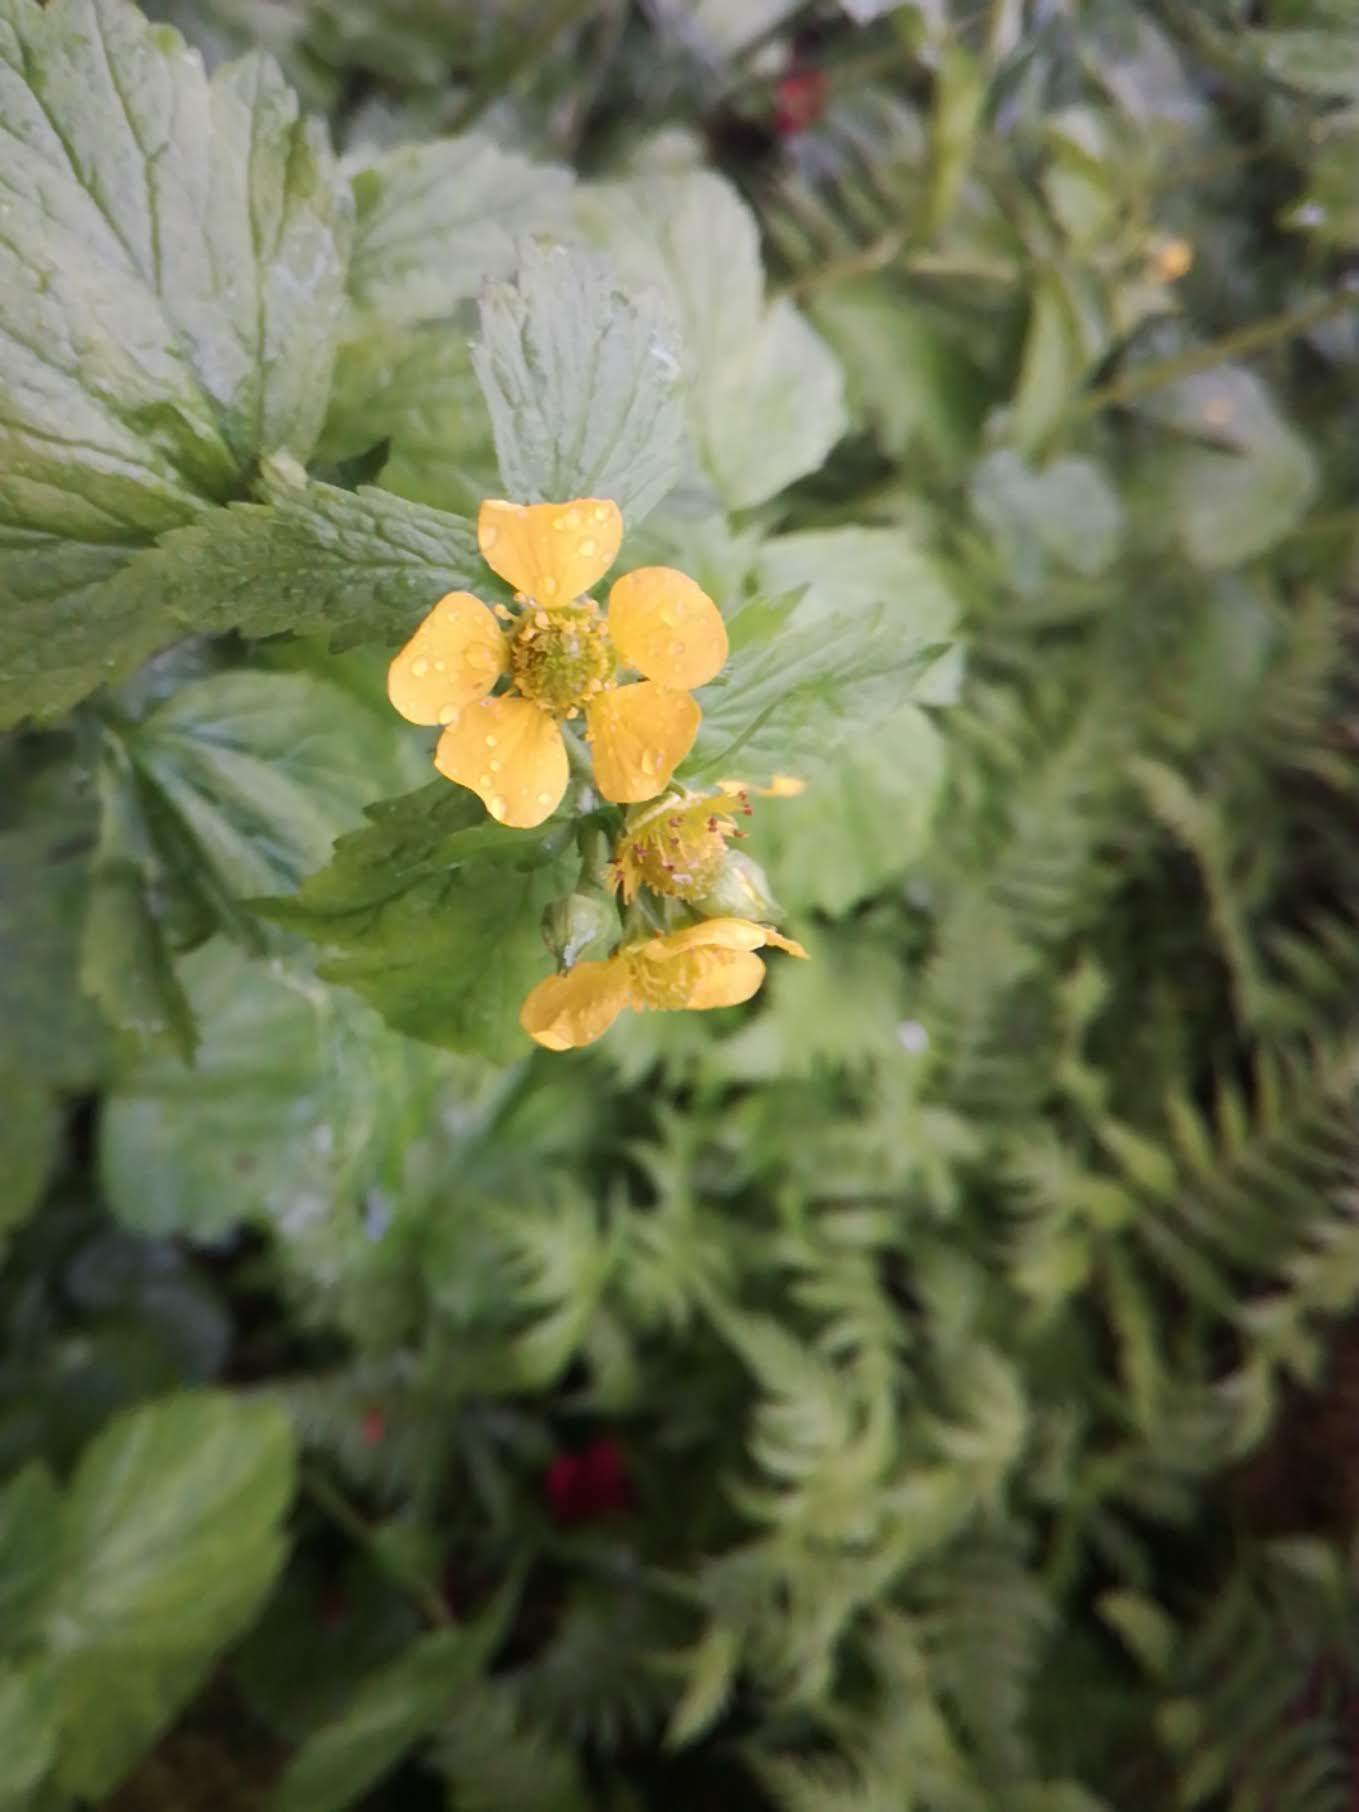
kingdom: Plantae
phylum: Tracheophyta
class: Magnoliopsida
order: Rosales
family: Rosaceae
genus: Geum
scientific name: Geum macrophyllum
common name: Large-leaved avens
